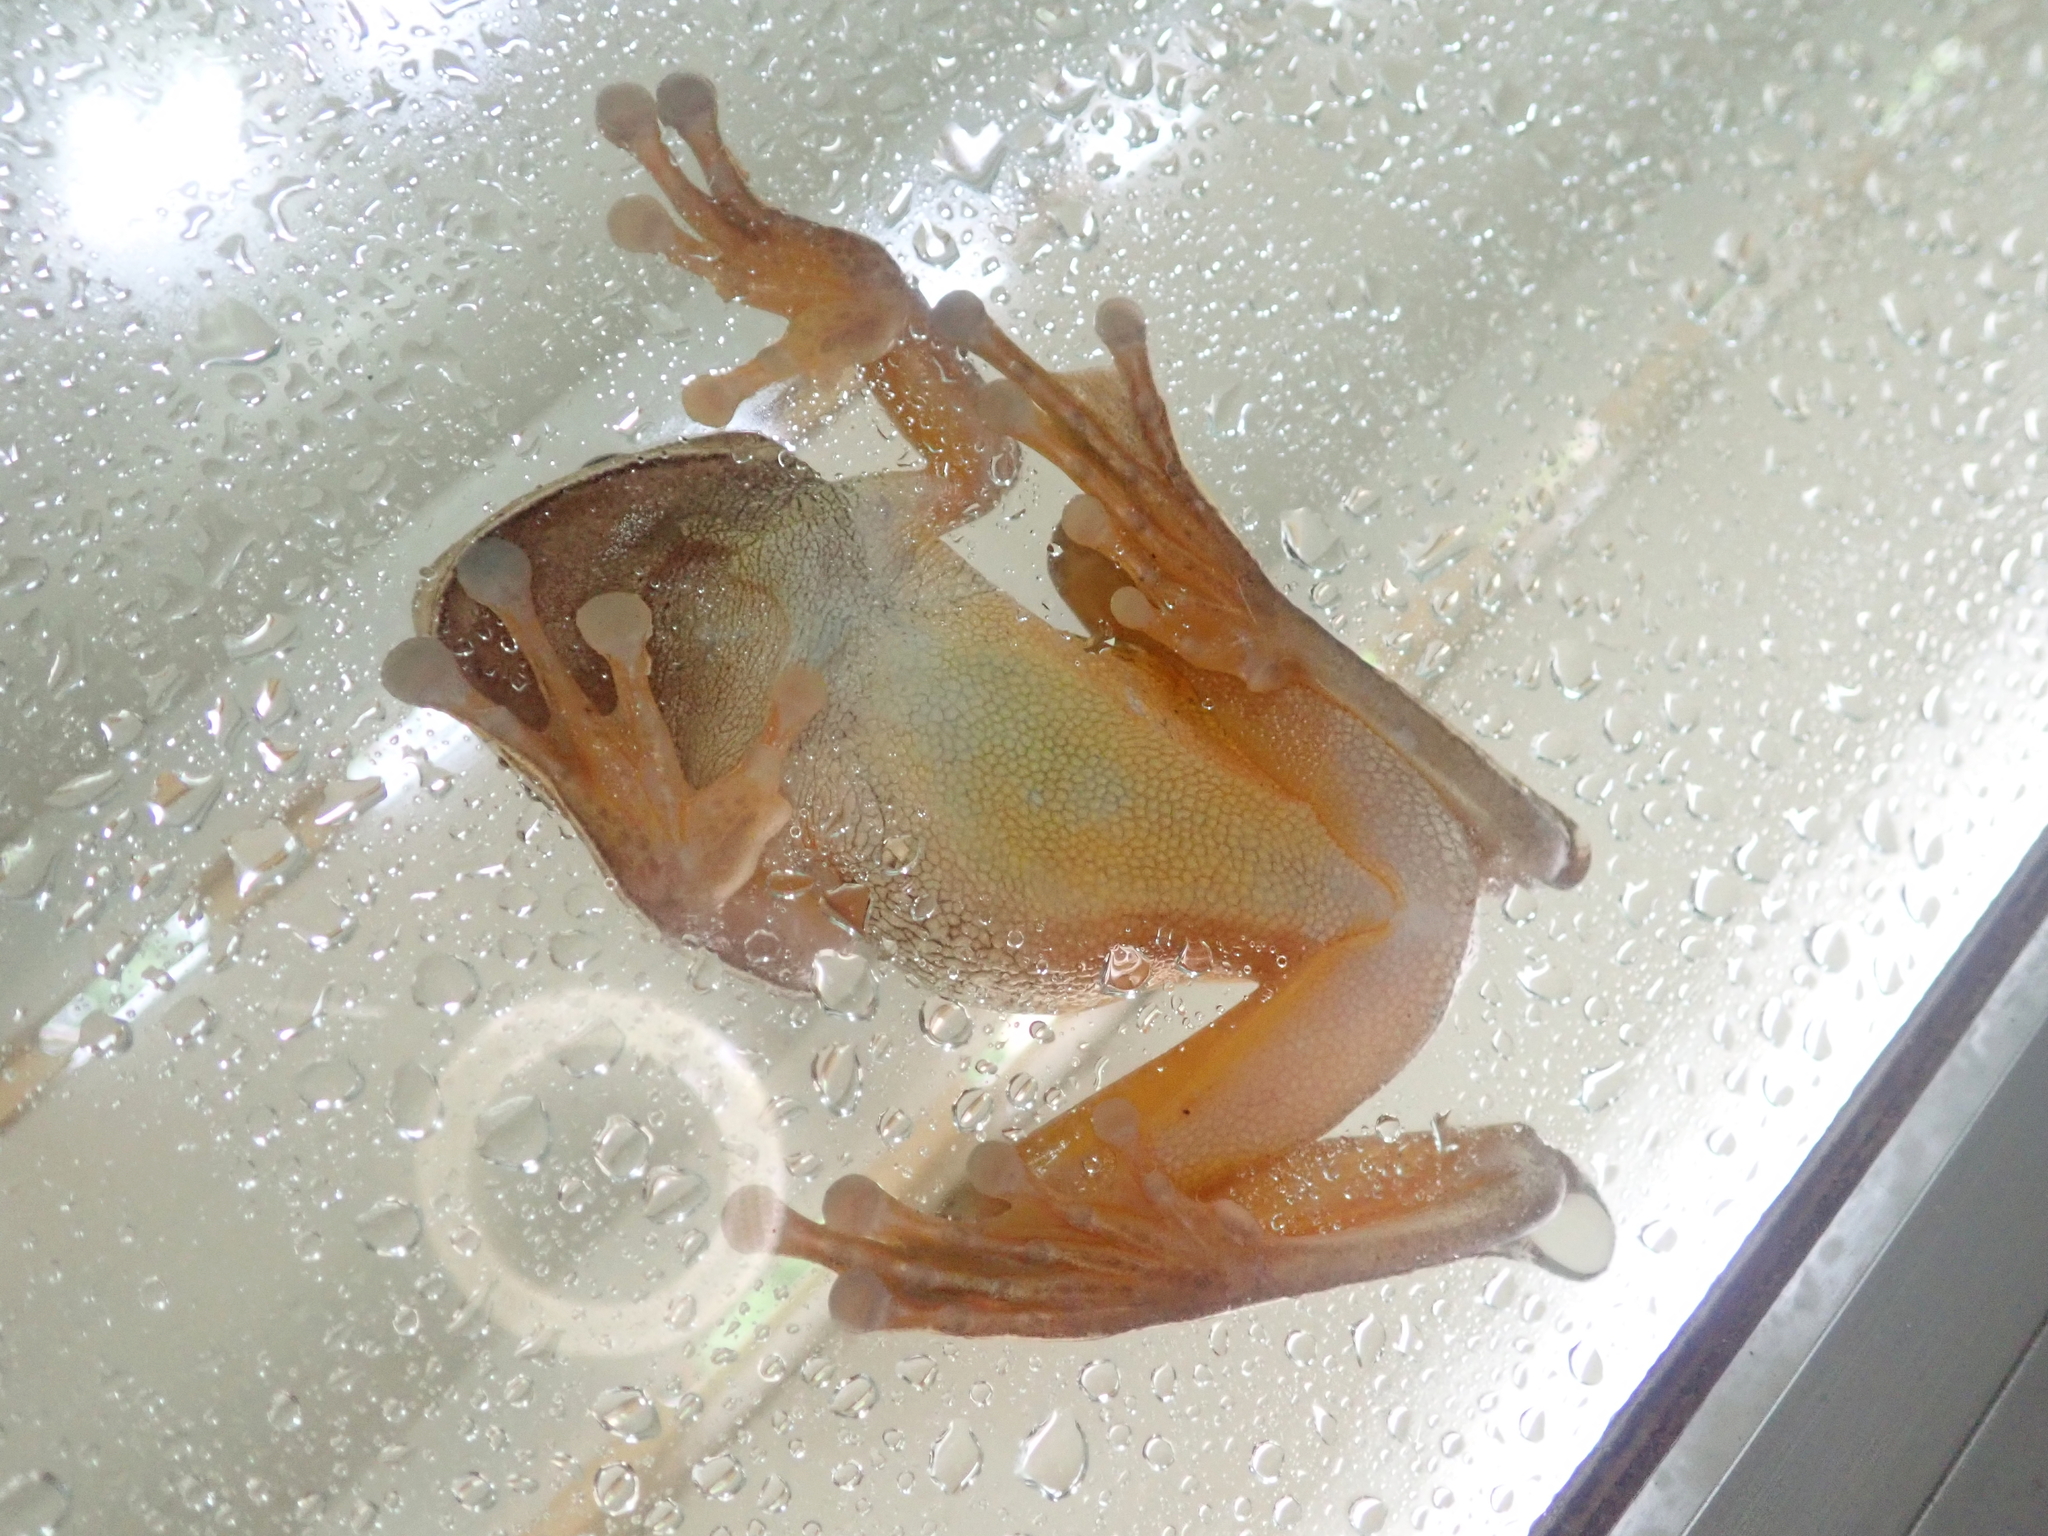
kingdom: Animalia
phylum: Chordata
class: Amphibia
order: Anura
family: Hylidae
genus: Boana
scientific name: Boana faber
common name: Blacksmith tree frog
